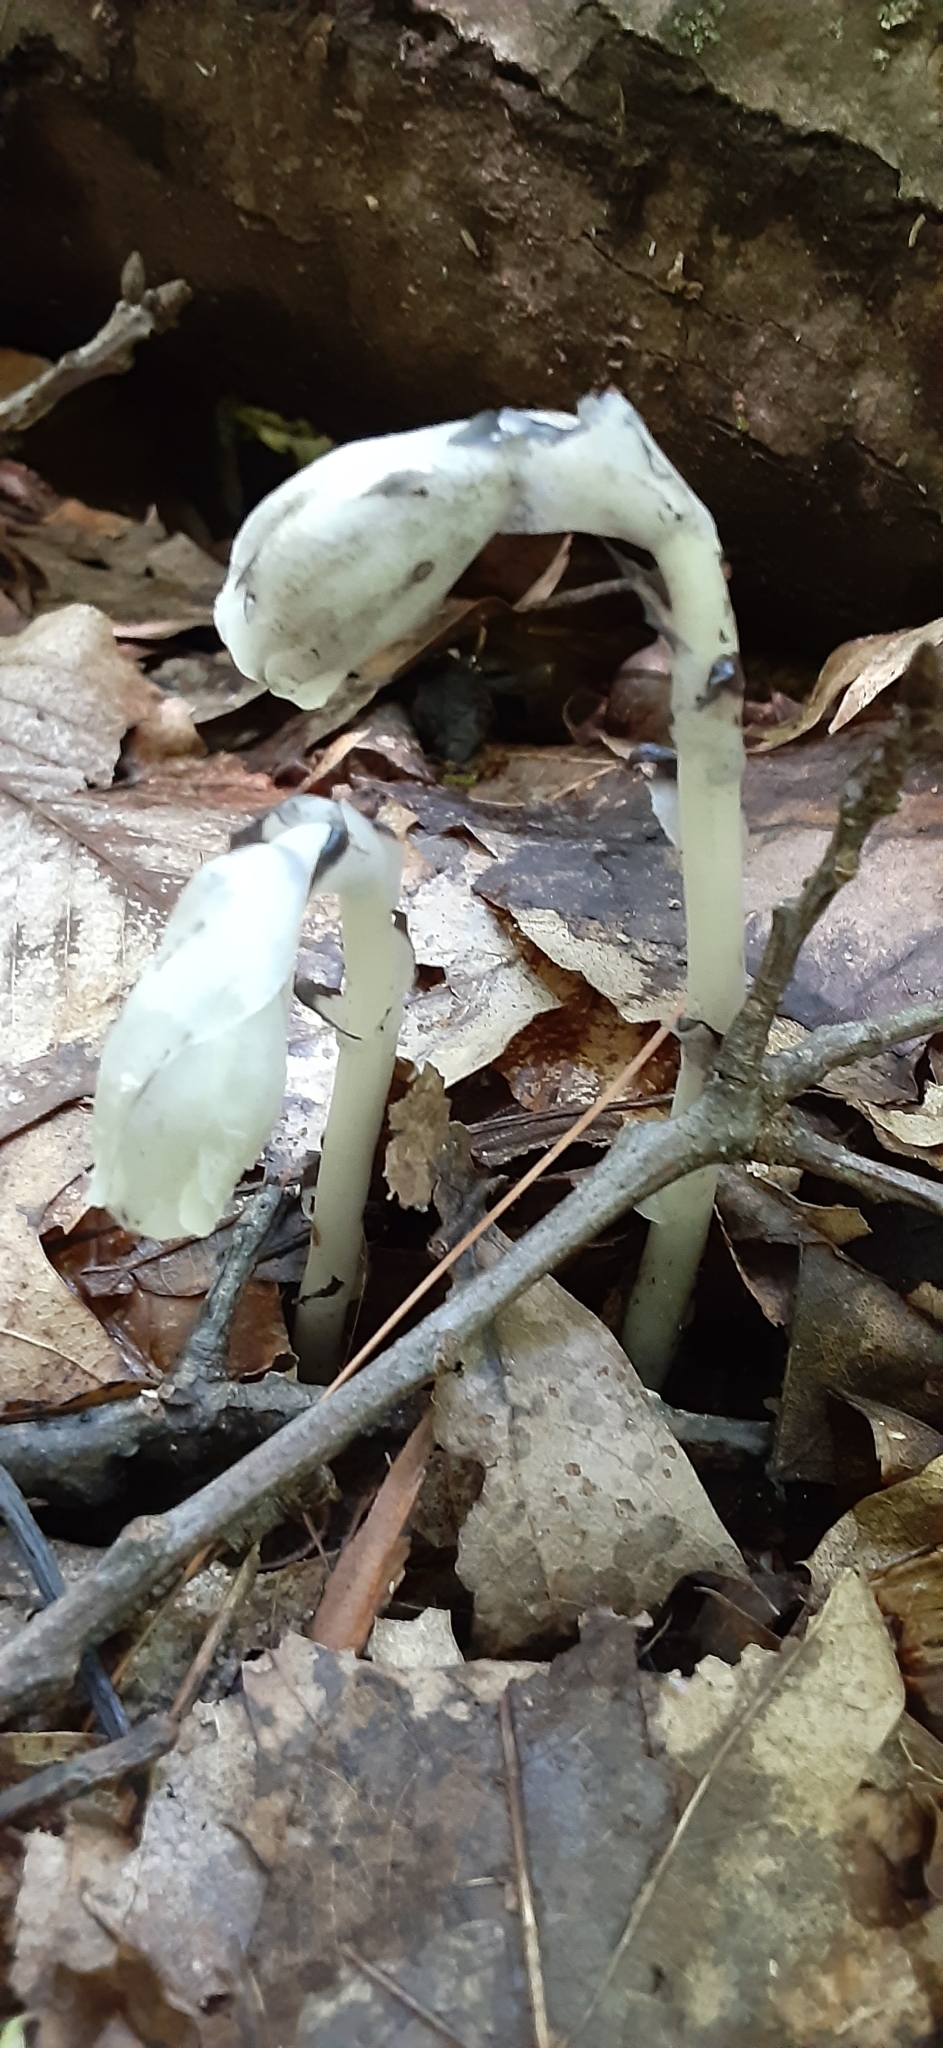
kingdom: Plantae
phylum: Tracheophyta
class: Magnoliopsida
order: Ericales
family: Ericaceae
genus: Monotropa
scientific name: Monotropa uniflora
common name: Convulsion root
